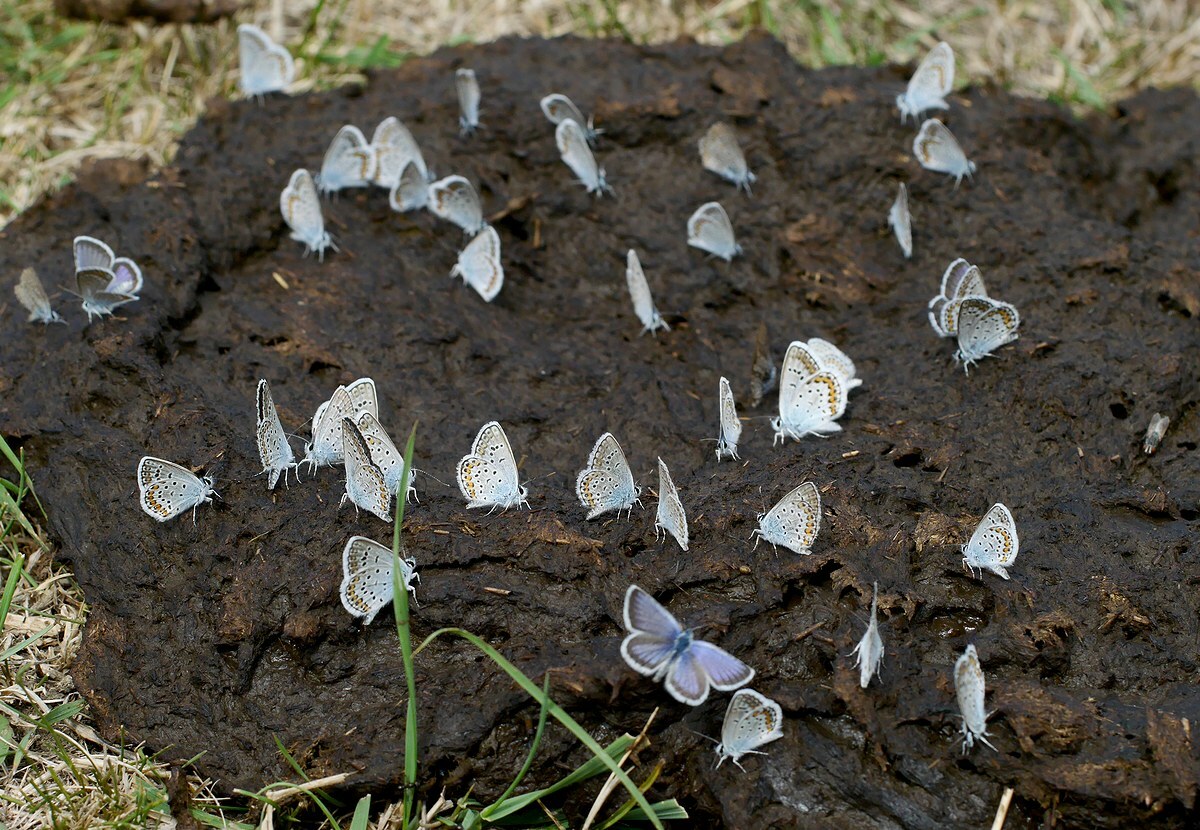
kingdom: Animalia
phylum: Arthropoda
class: Insecta
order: Lepidoptera
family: Lycaenidae
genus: Plebejus
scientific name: Plebejus argus
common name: Silver-studded blue
